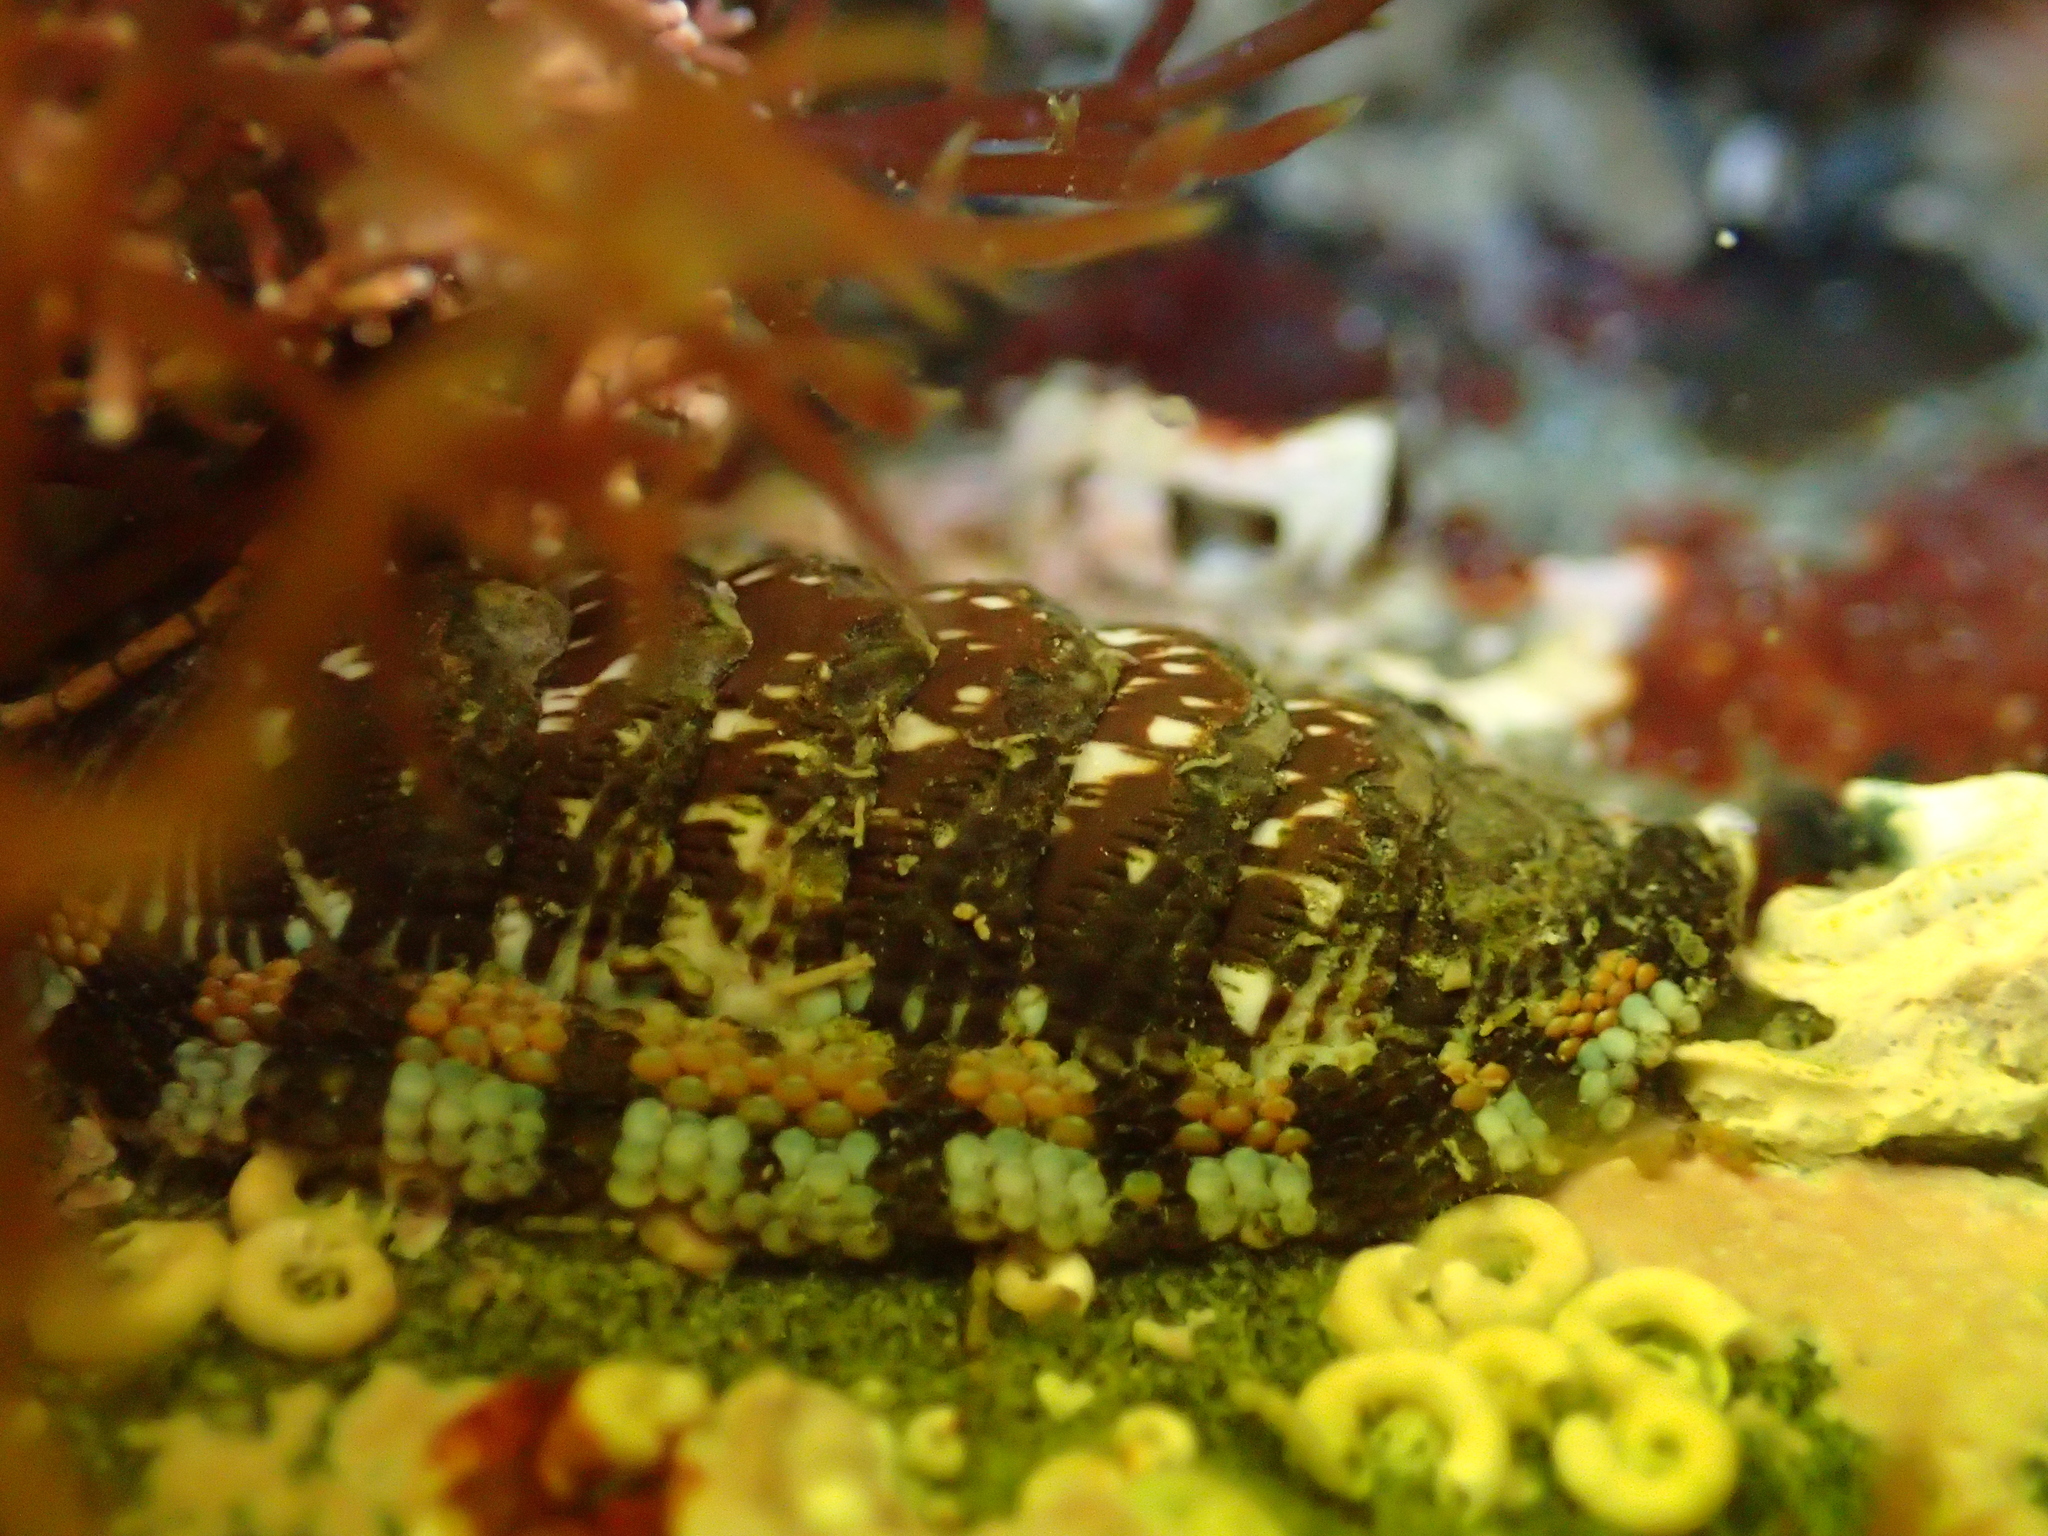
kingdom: Animalia
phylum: Mollusca
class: Polyplacophora
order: Chitonida
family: Chitonidae
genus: Sypharochiton
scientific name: Sypharochiton sinclairi
